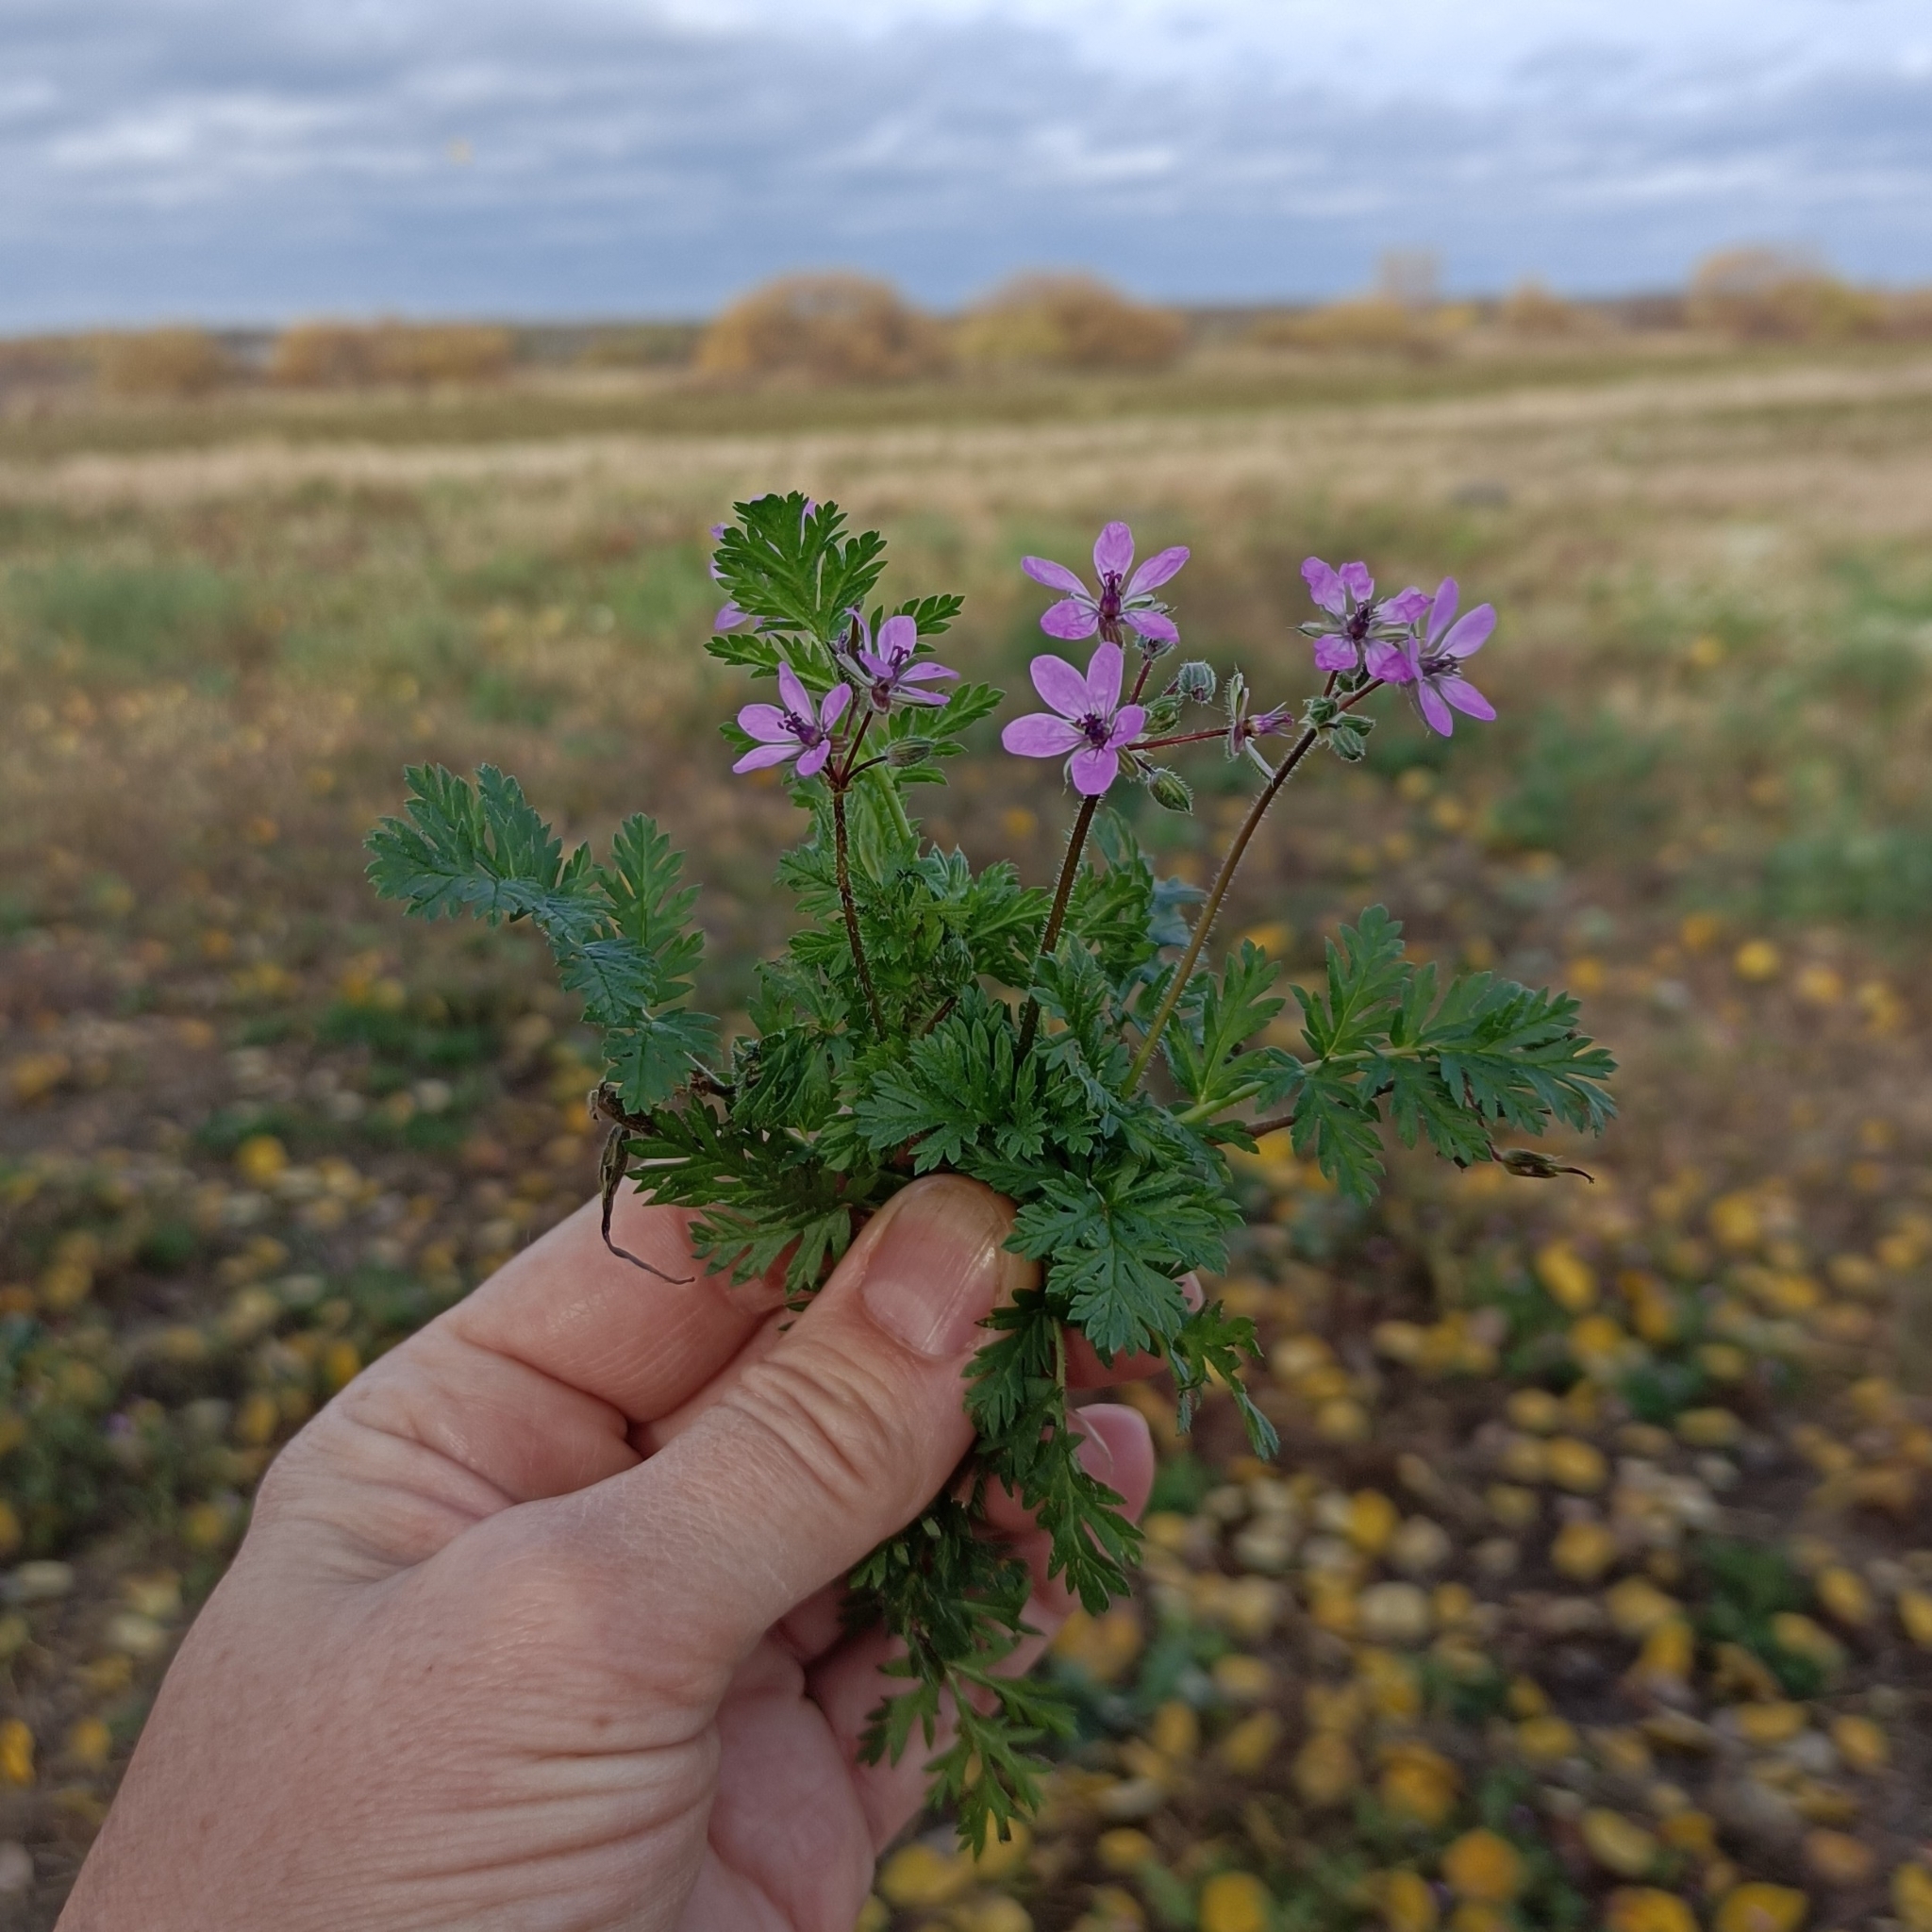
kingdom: Plantae
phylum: Tracheophyta
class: Magnoliopsida
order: Geraniales
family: Geraniaceae
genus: Erodium
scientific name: Erodium cicutarium
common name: Common stork's-bill
